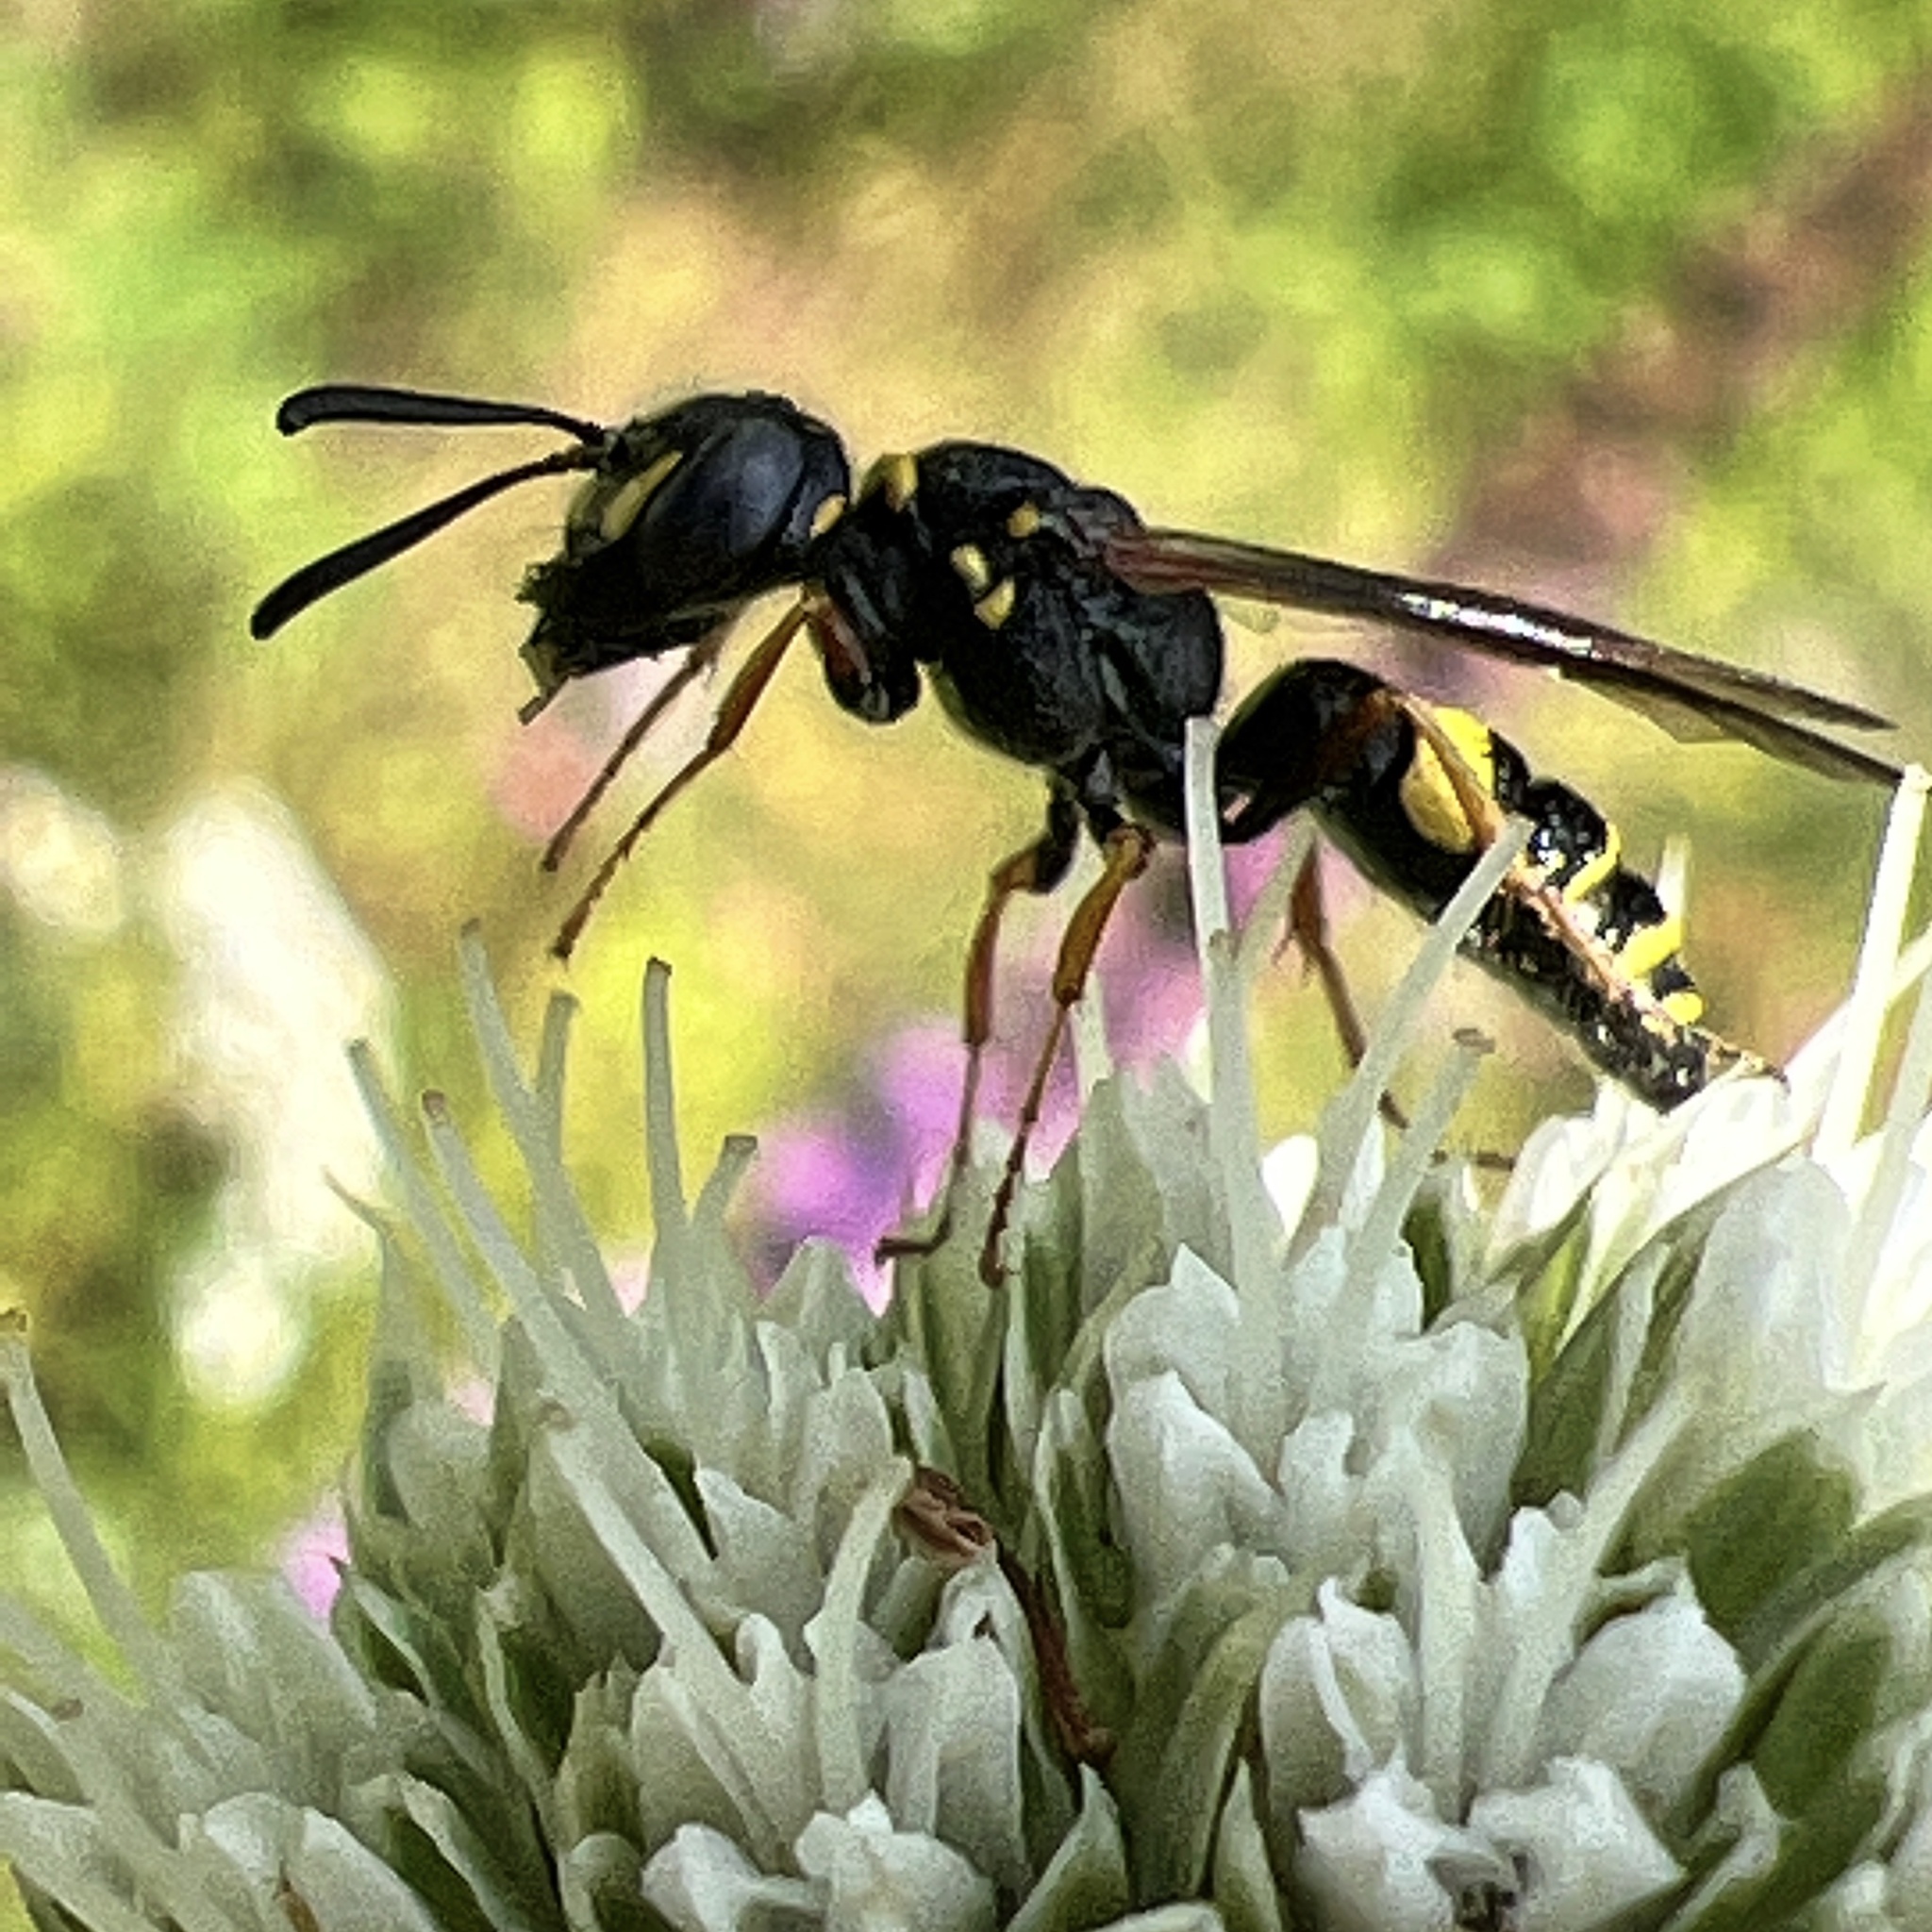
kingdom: Animalia
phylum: Arthropoda
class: Insecta
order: Hymenoptera
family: Crabronidae
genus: Philanthus
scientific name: Philanthus gibbosus
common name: Humped beewolf
